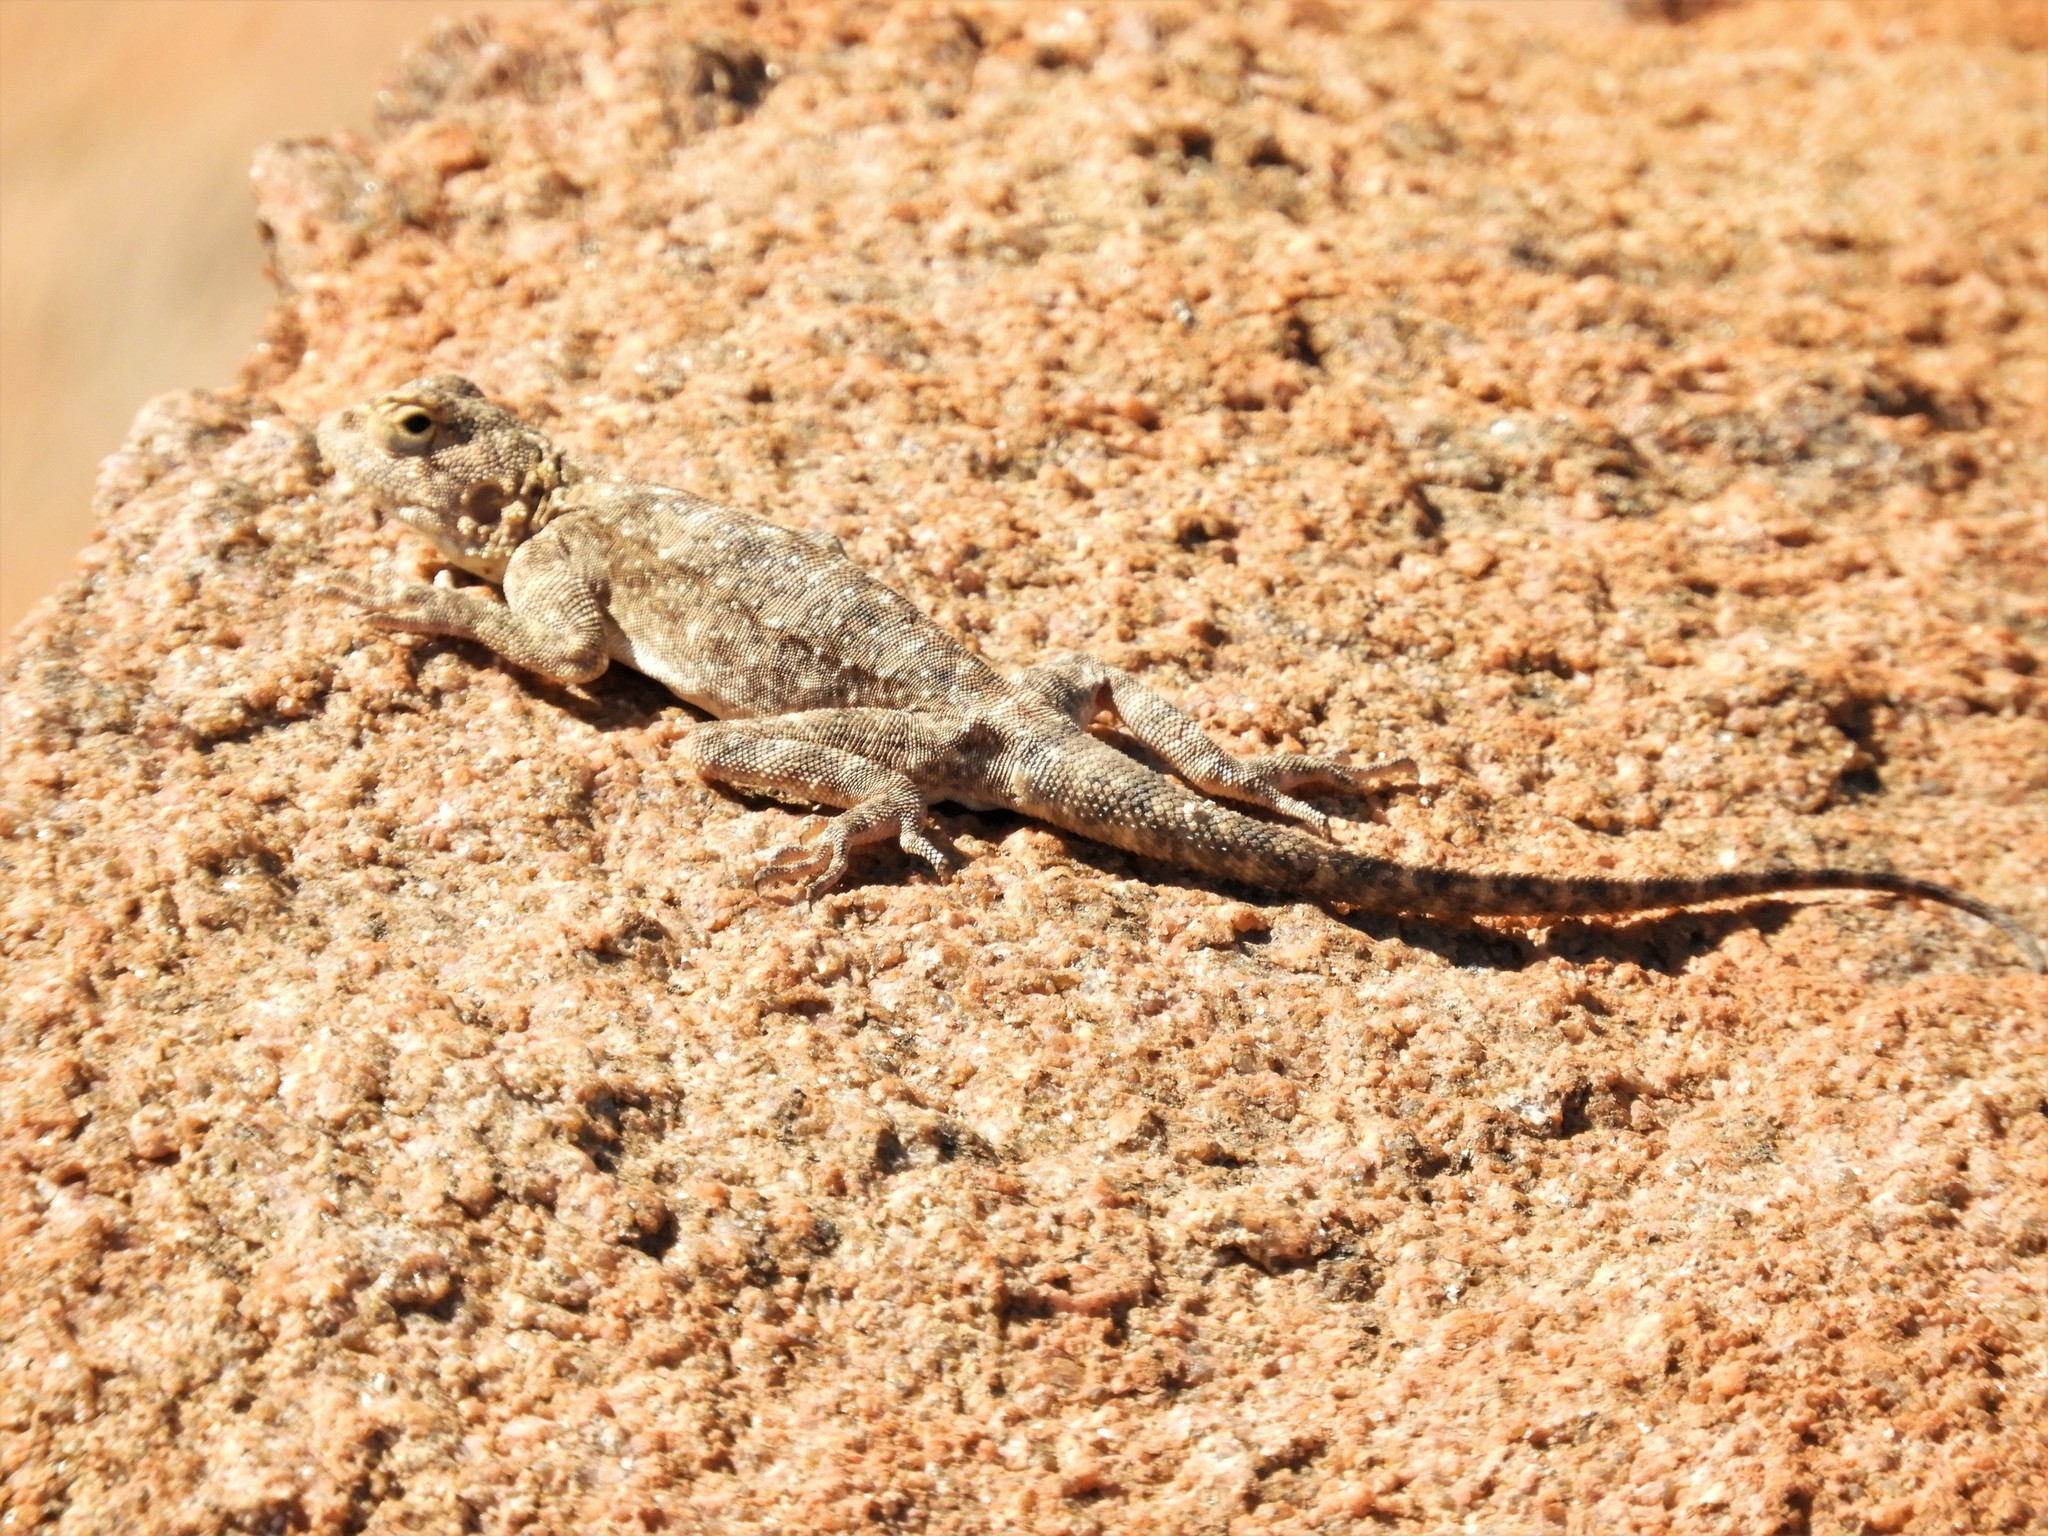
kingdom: Animalia
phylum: Chordata
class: Squamata
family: Agamidae
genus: Agama
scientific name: Agama atra
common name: Southern african rock agama
